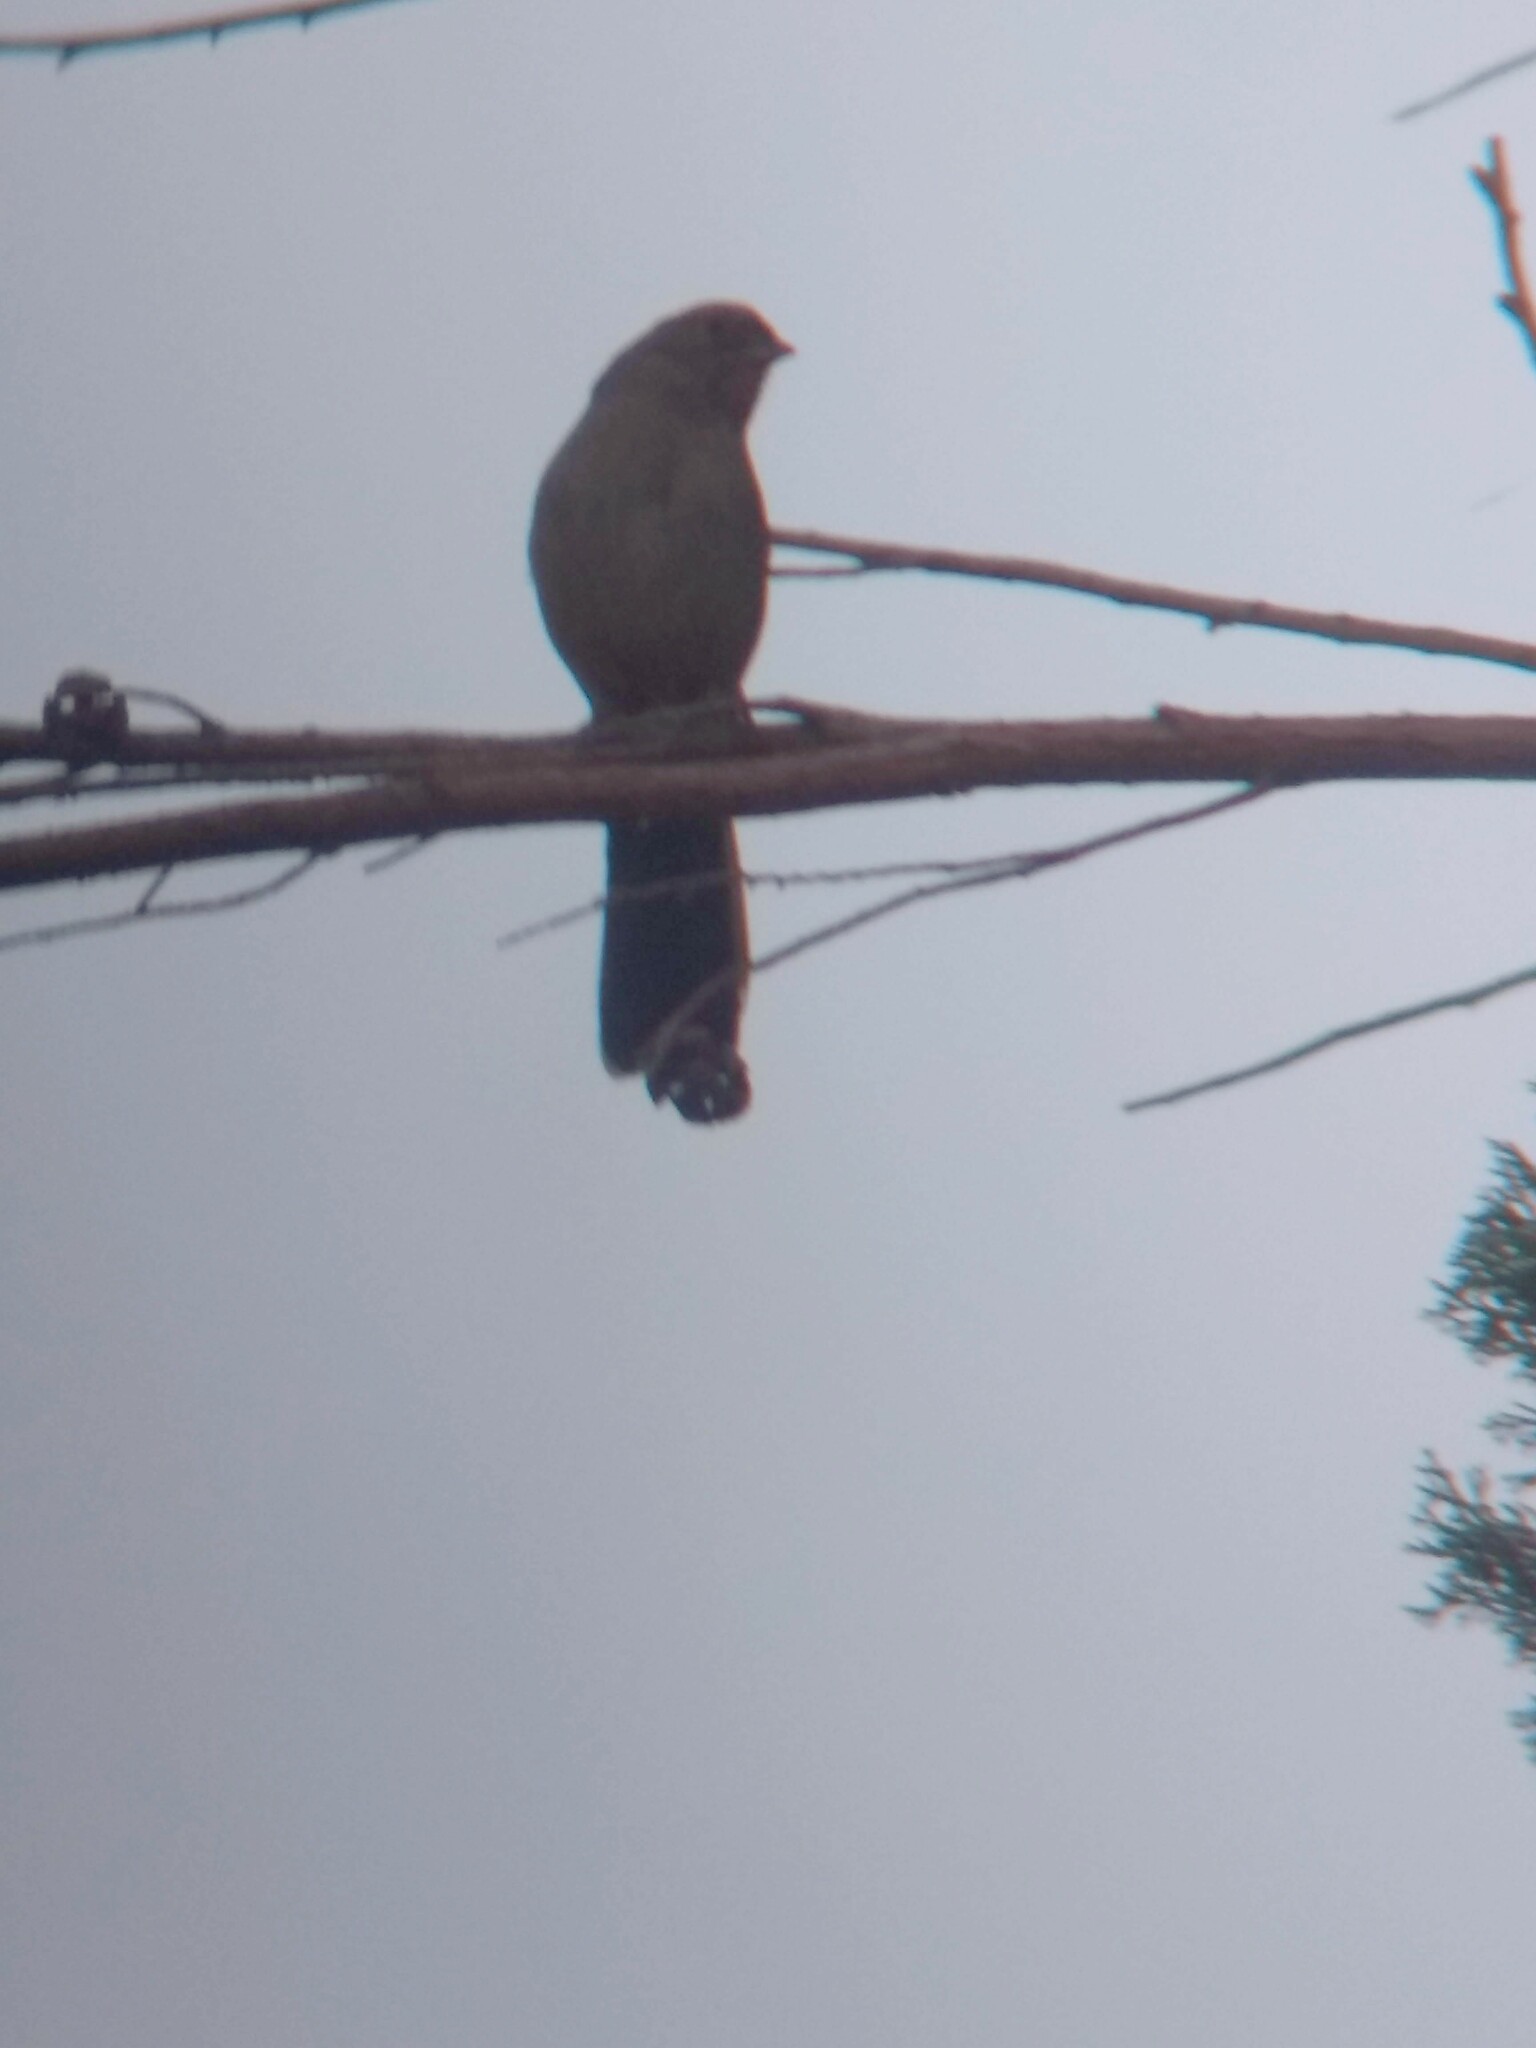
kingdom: Animalia
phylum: Chordata
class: Aves
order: Passeriformes
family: Passerellidae
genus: Melozone
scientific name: Melozone crissalis
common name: California towhee
